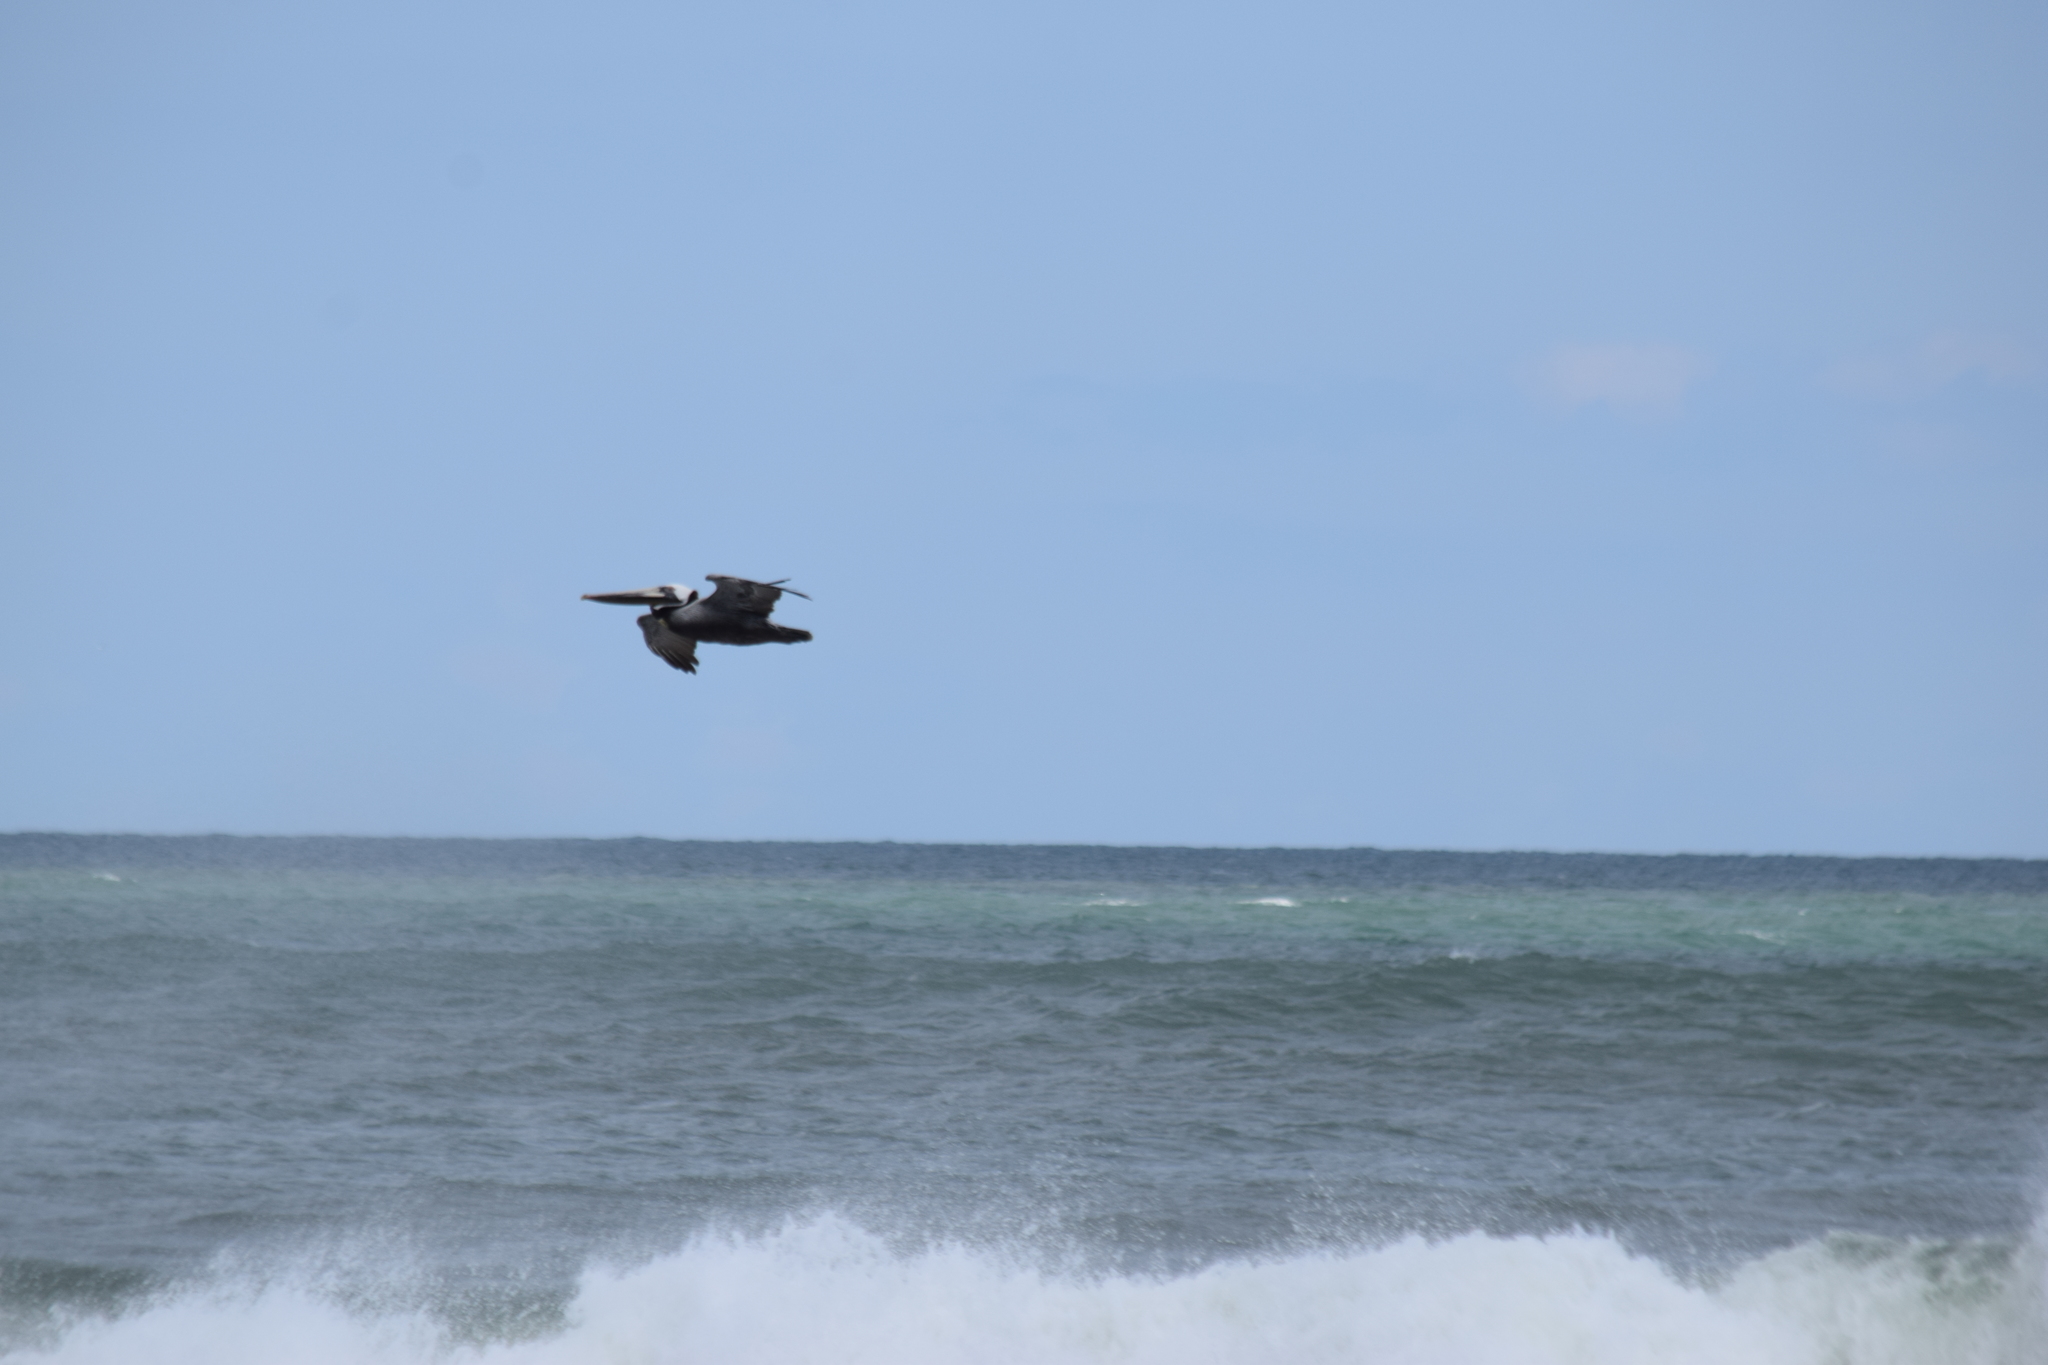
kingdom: Animalia
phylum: Chordata
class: Aves
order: Pelecaniformes
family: Pelecanidae
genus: Pelecanus
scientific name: Pelecanus occidentalis
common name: Brown pelican
